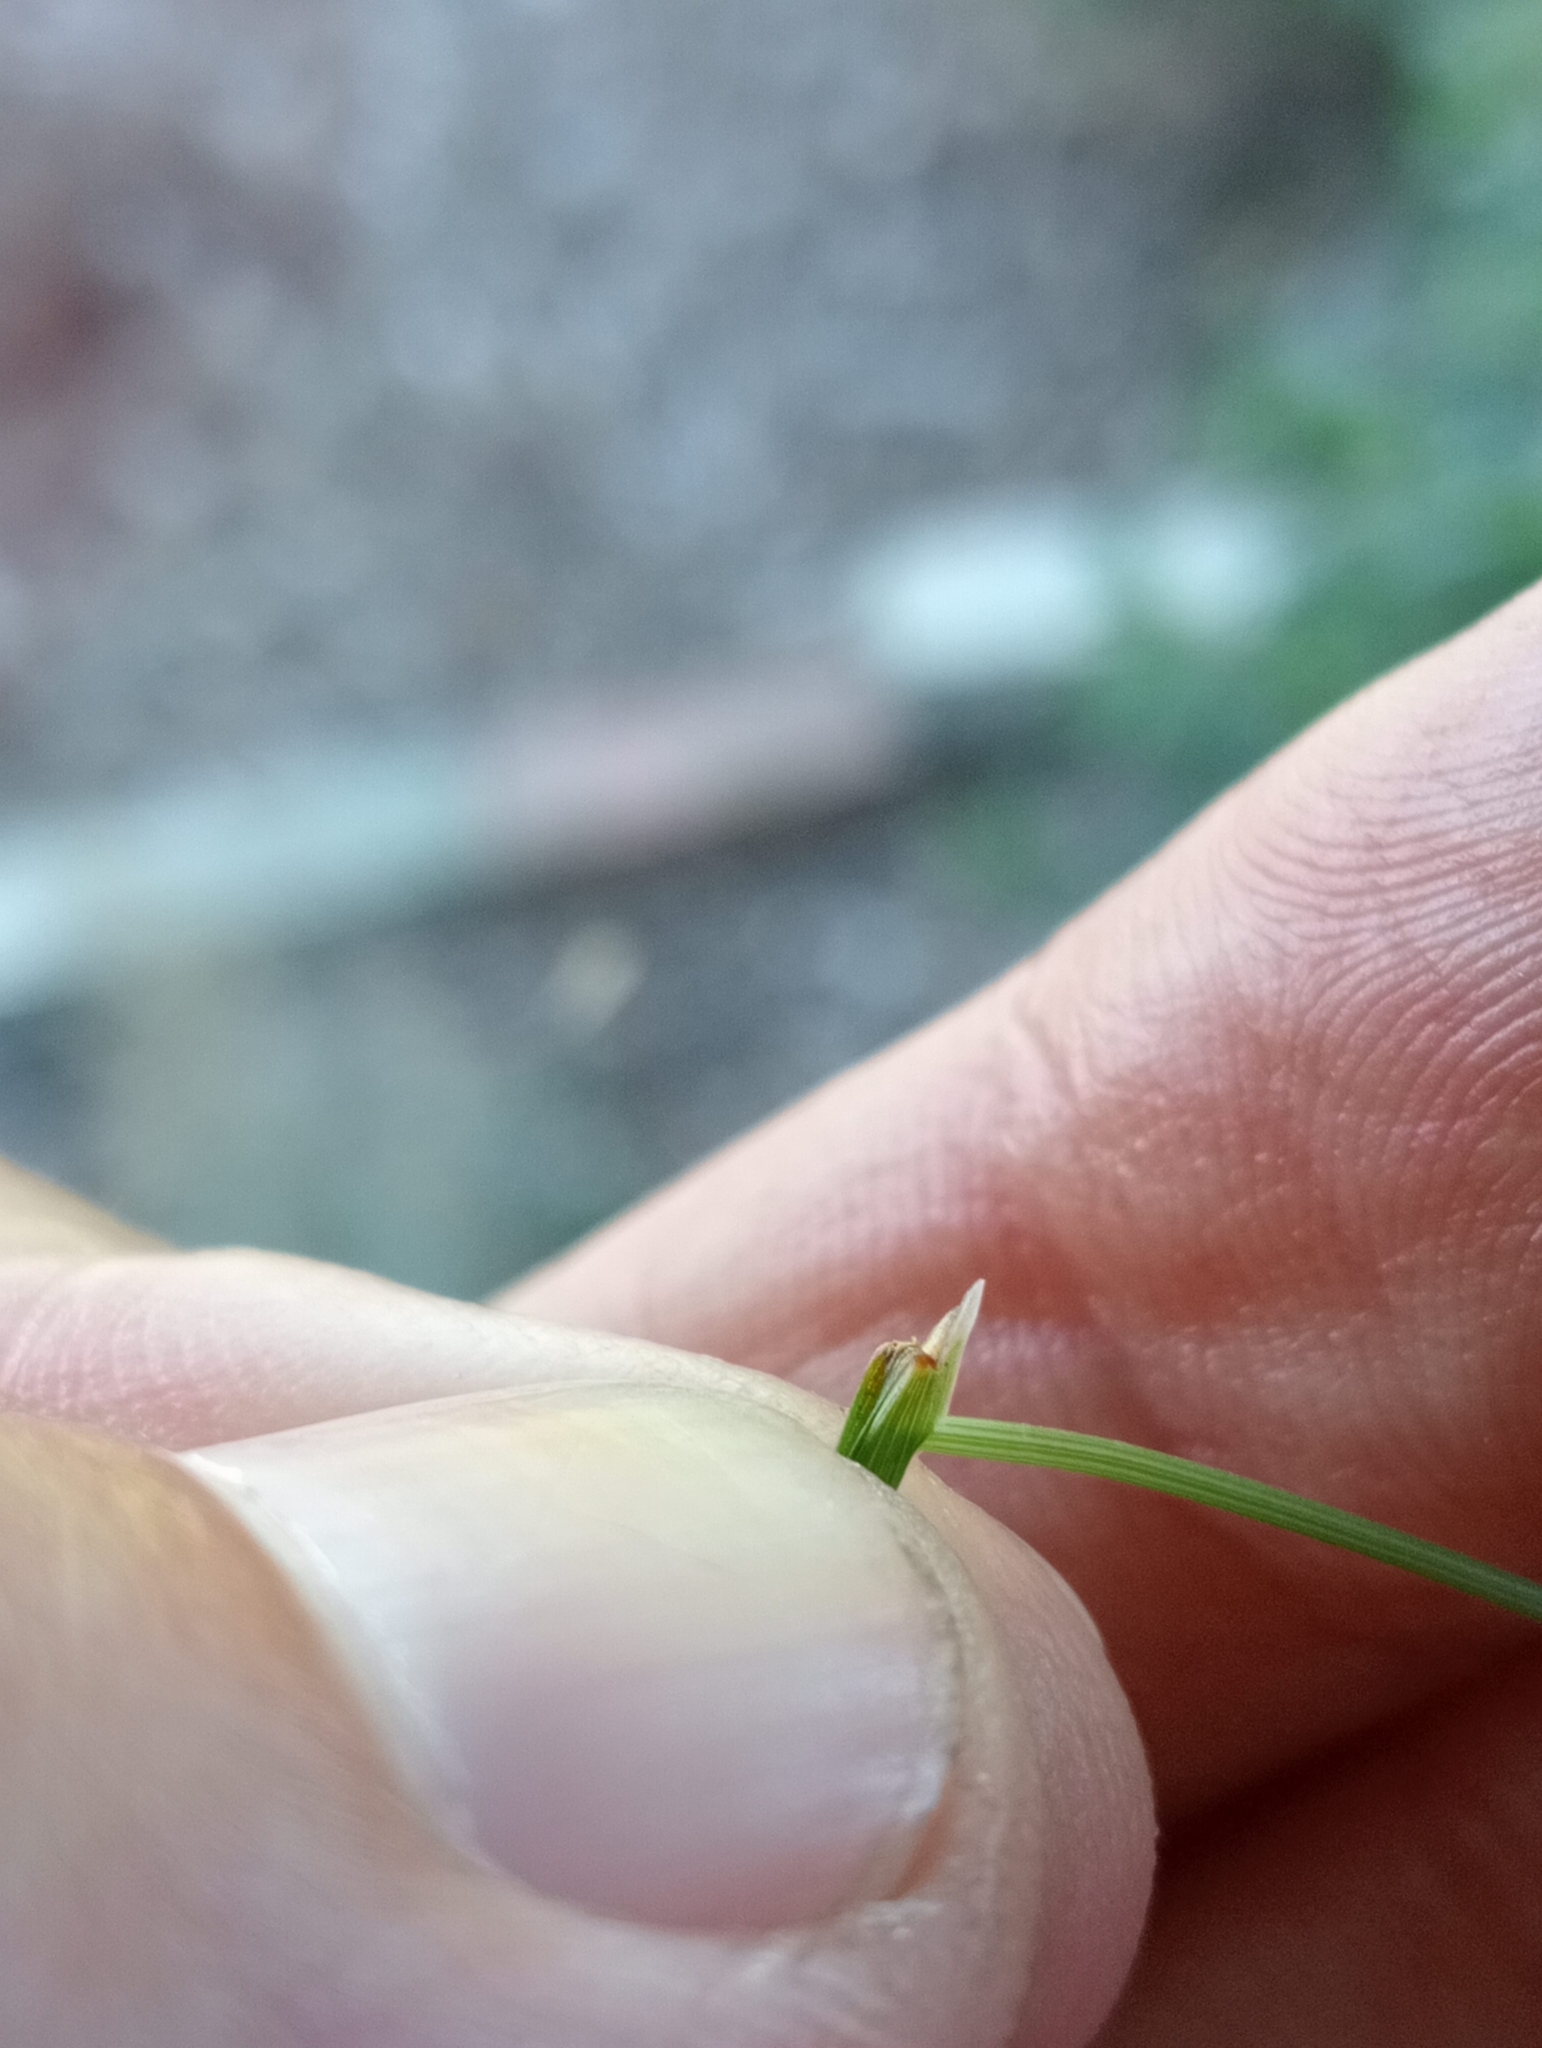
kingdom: Plantae
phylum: Tracheophyta
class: Liliopsida
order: Poales
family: Poaceae
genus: Calamagrostis
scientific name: Calamagrostis avenoides
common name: Mountain oat grass
